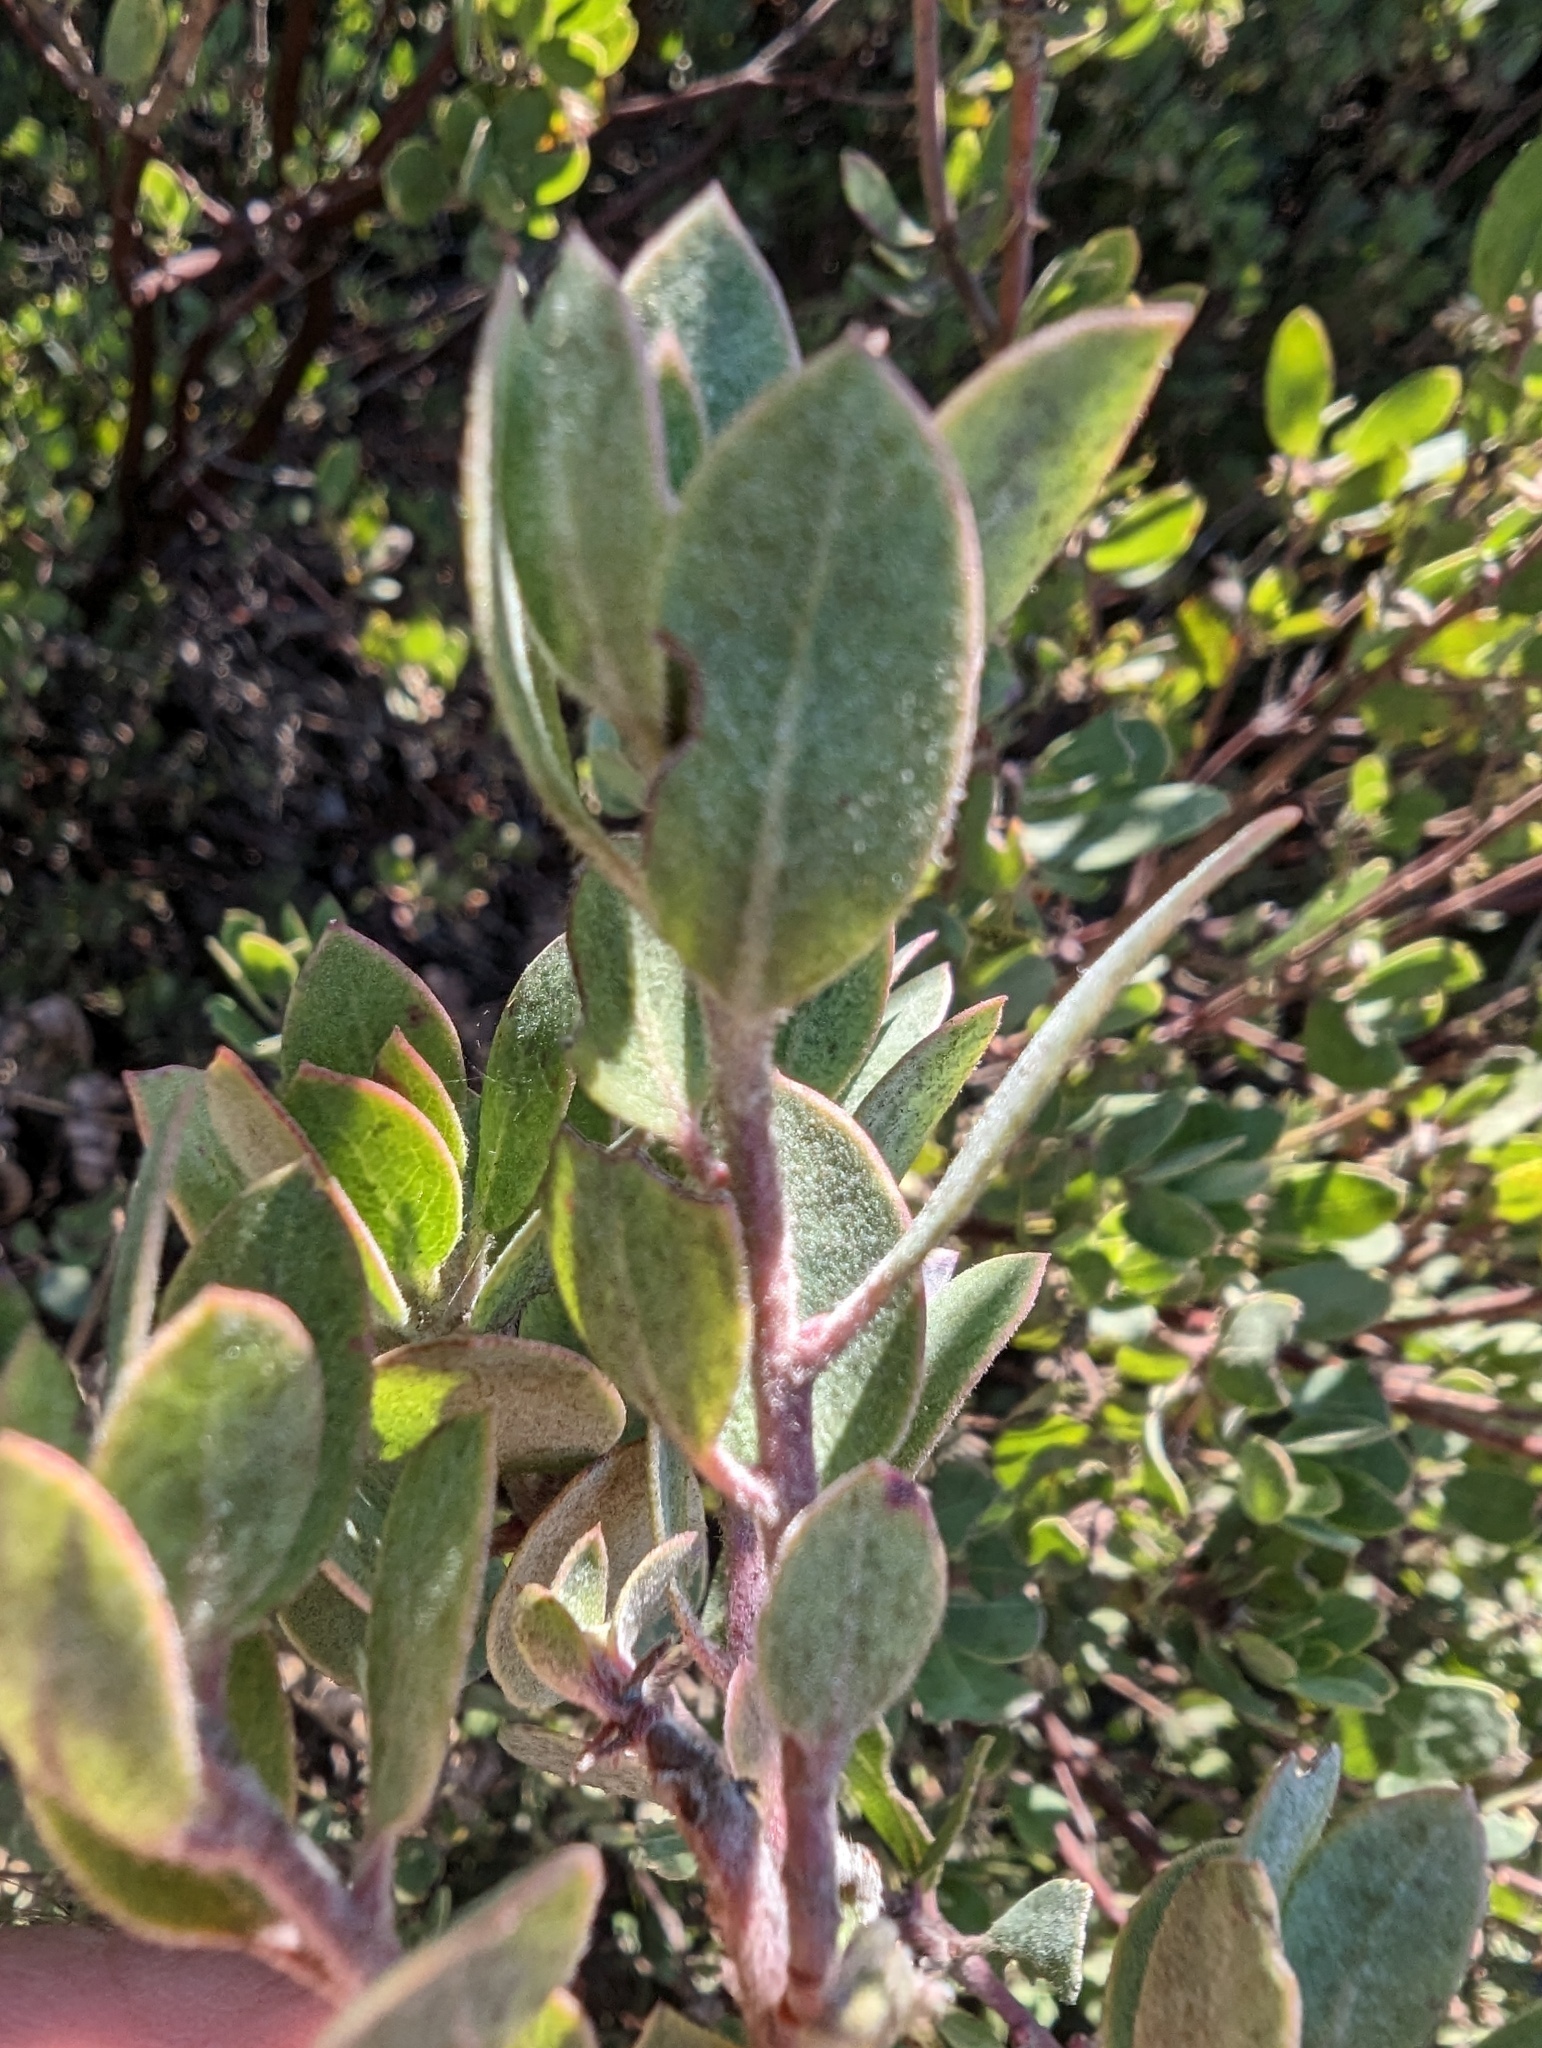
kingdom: Plantae
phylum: Tracheophyta
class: Magnoliopsida
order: Ericales
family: Ericaceae
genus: Arctostaphylos
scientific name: Arctostaphylos silvicola
